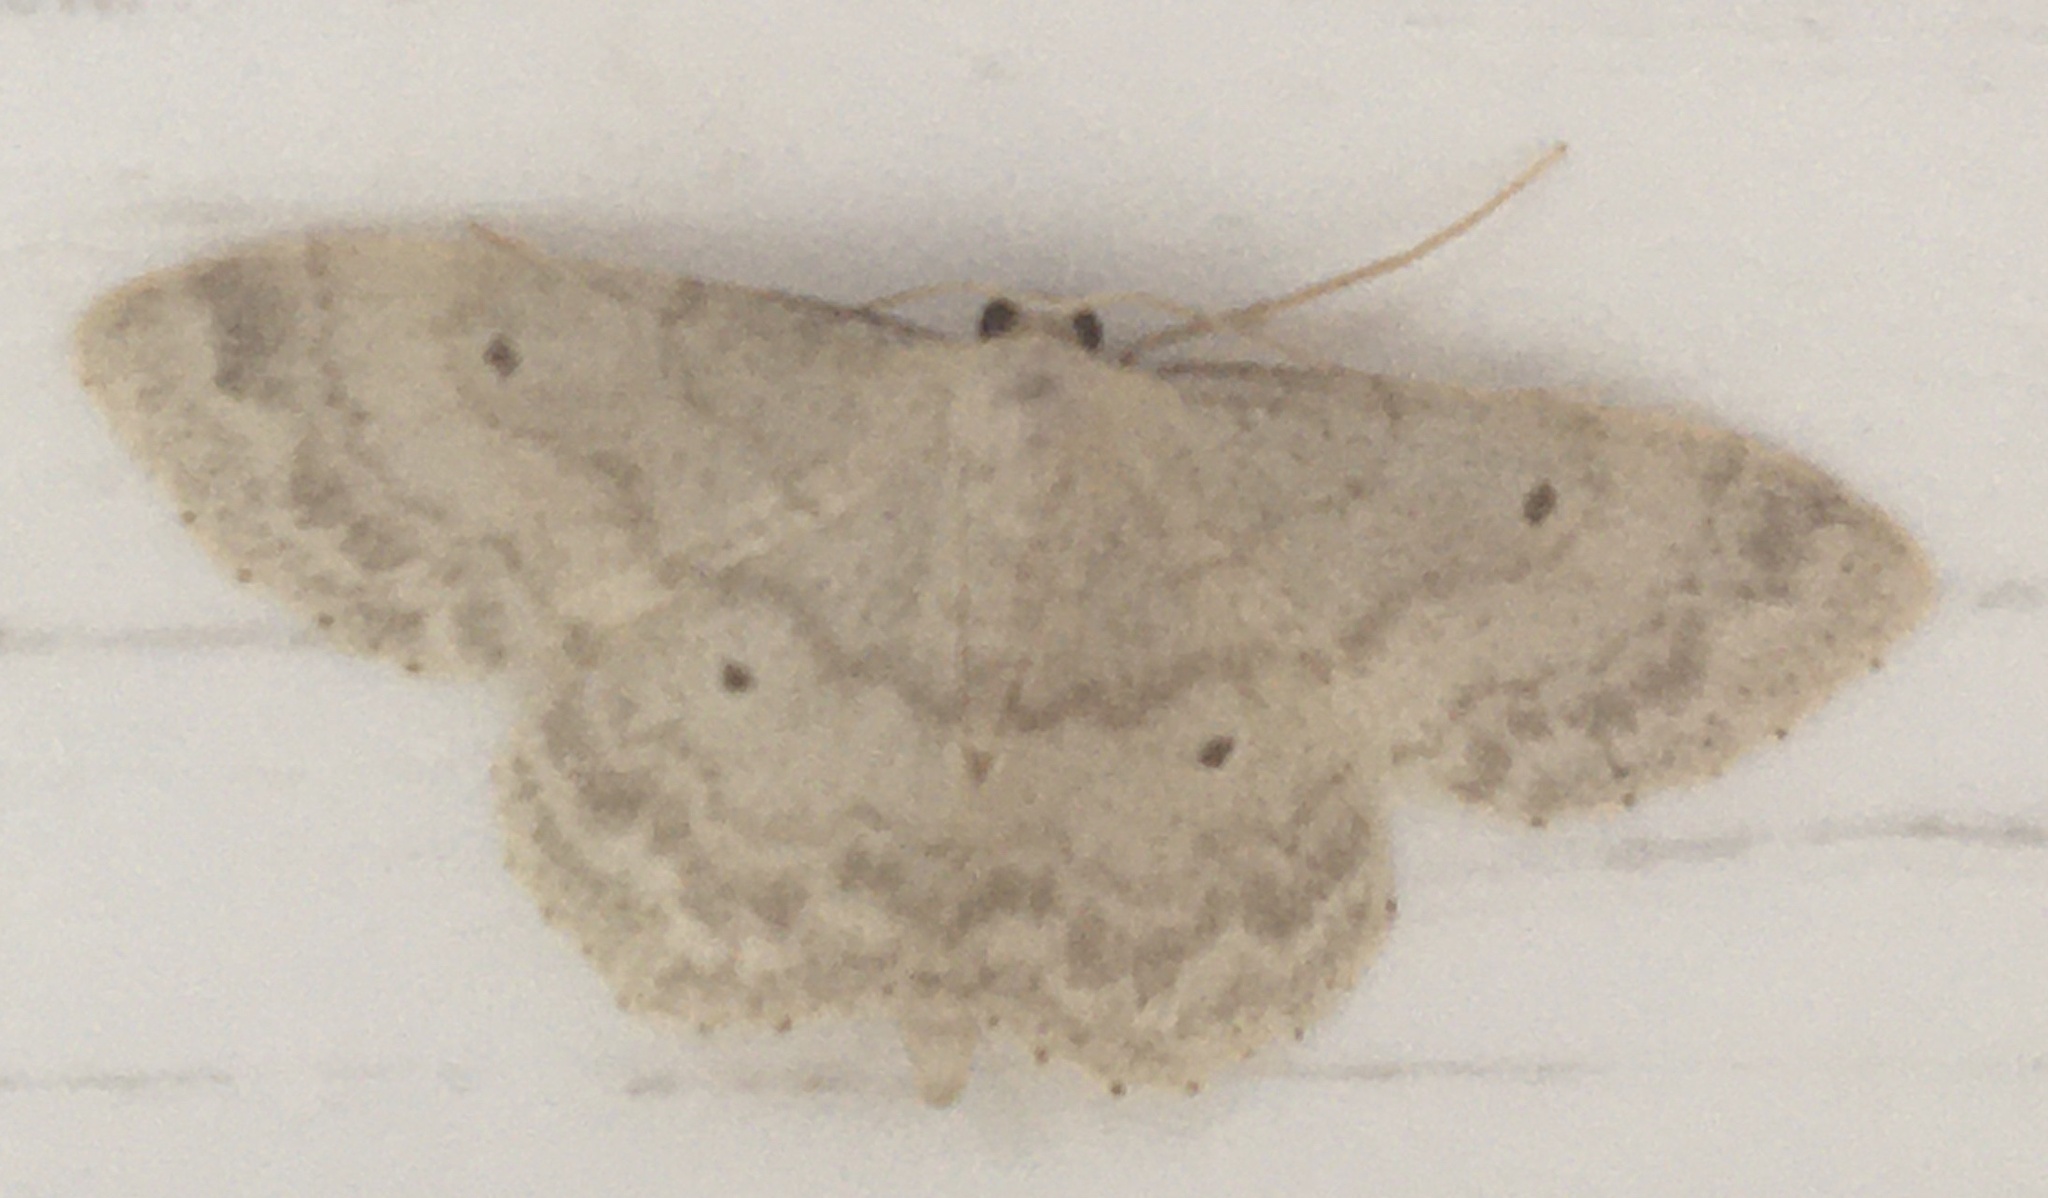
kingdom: Animalia
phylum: Arthropoda
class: Insecta
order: Lepidoptera
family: Geometridae
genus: Idaea
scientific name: Idaea biselata
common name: Small fan-footed wave
